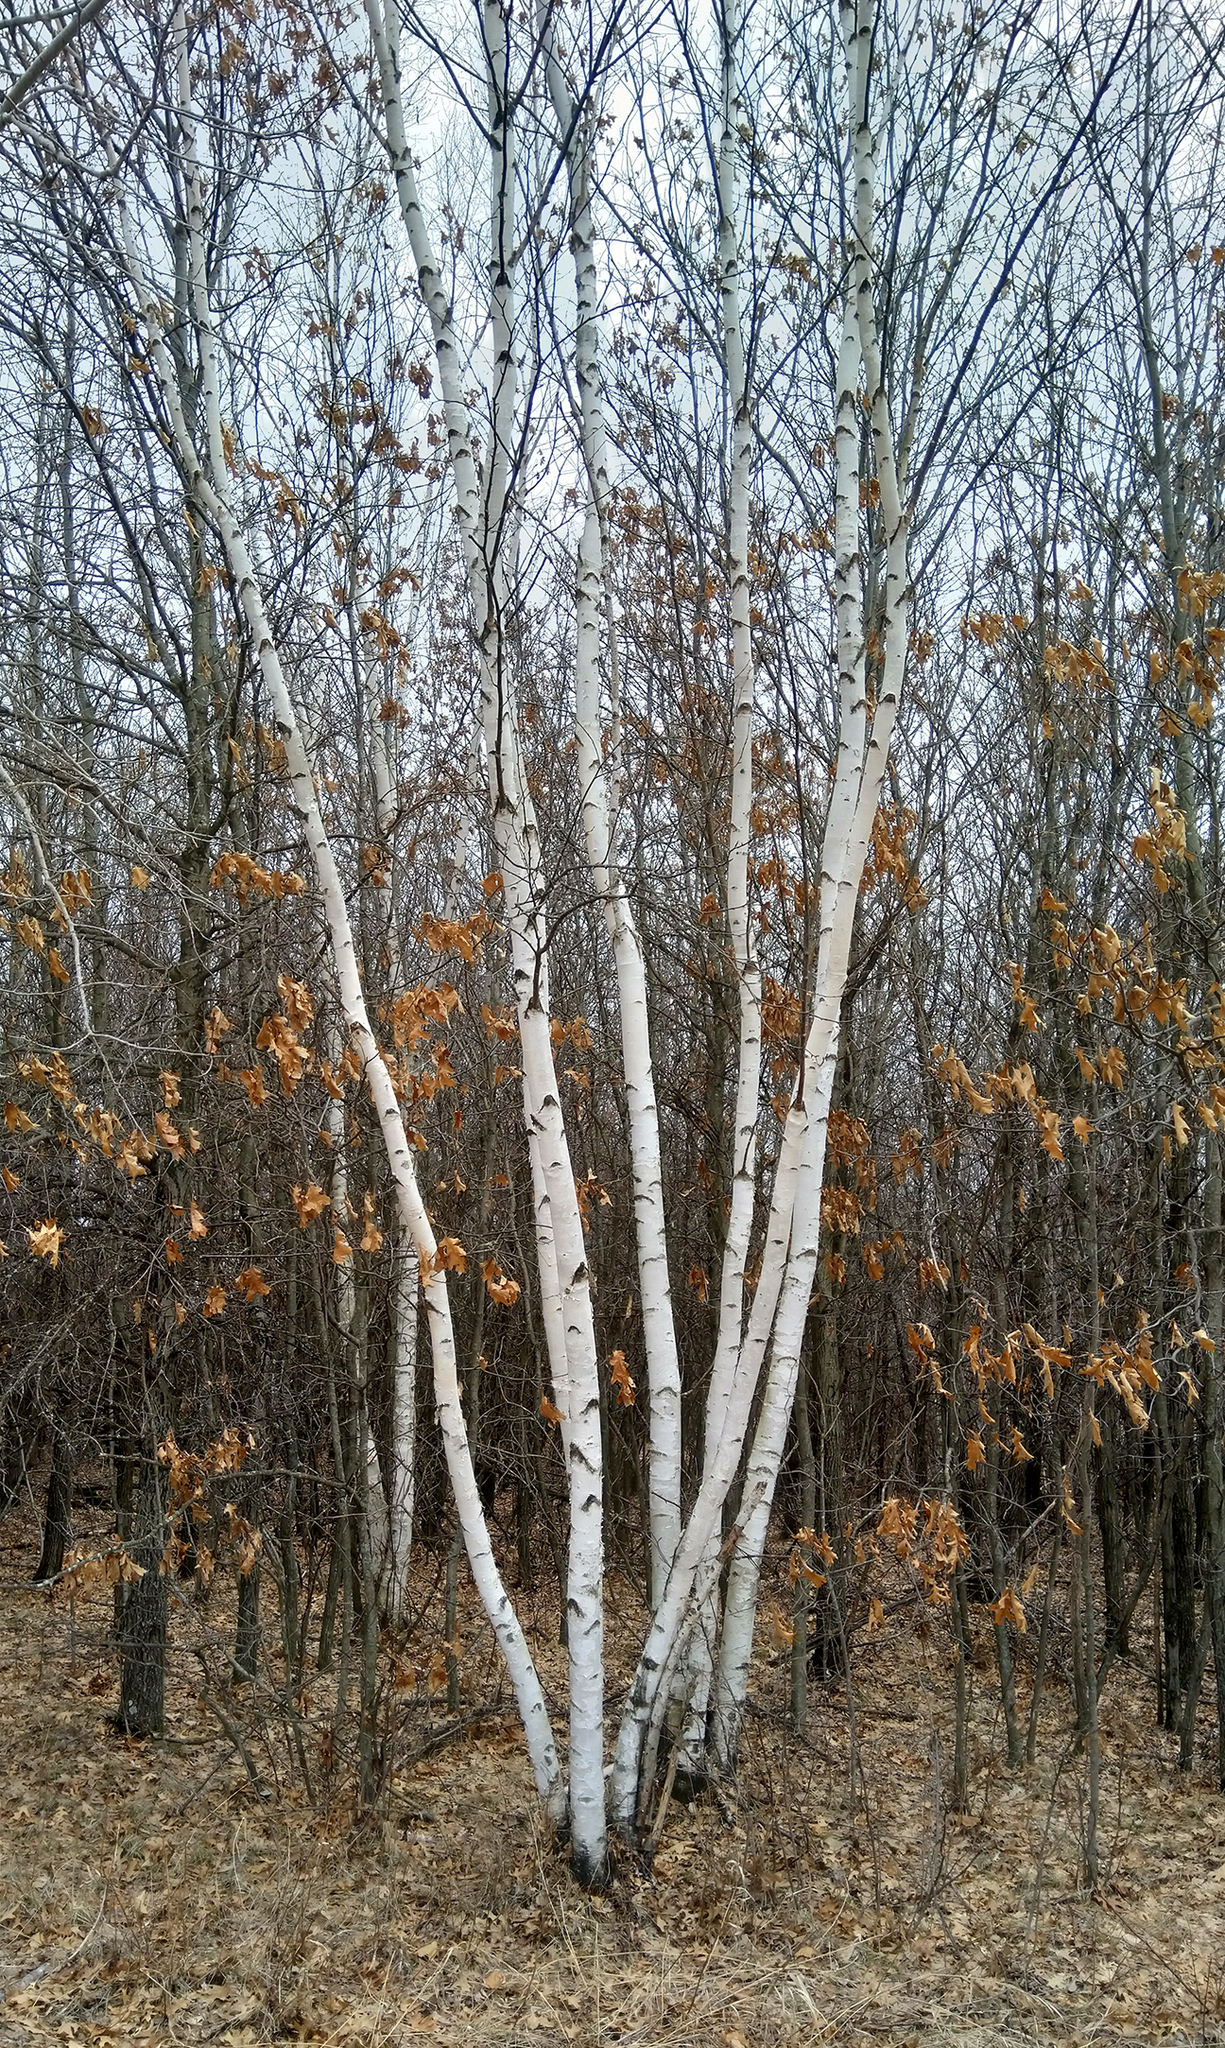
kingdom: Plantae
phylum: Tracheophyta
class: Magnoliopsida
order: Fagales
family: Betulaceae
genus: Betula
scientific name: Betula papyrifera
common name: Paper birch
